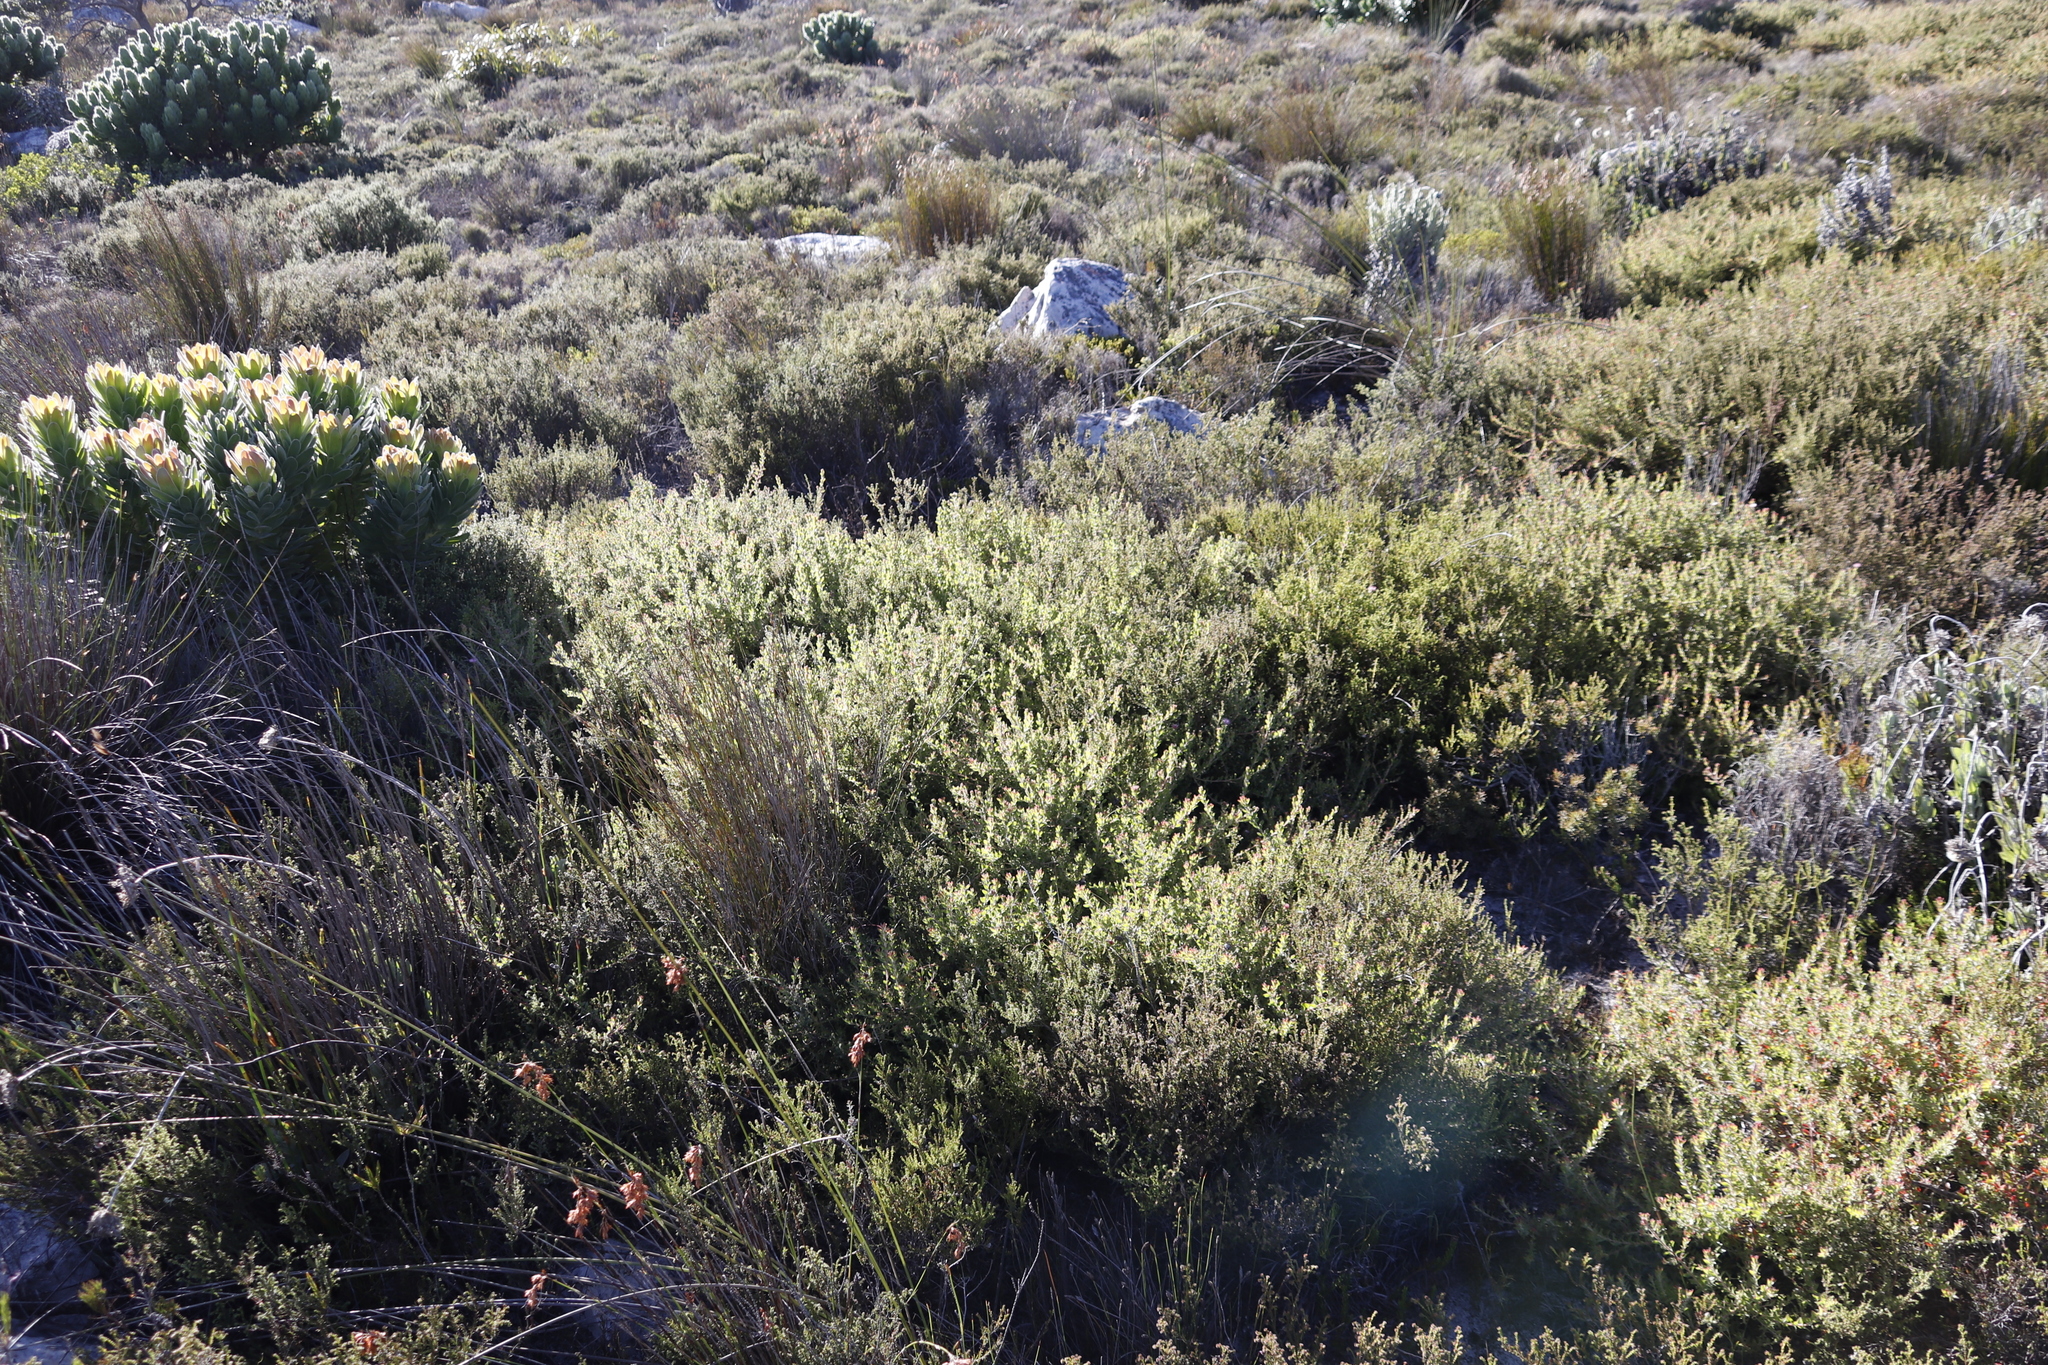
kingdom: Plantae
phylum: Tracheophyta
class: Magnoliopsida
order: Proteales
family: Proteaceae
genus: Diastella
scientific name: Diastella divaricata
